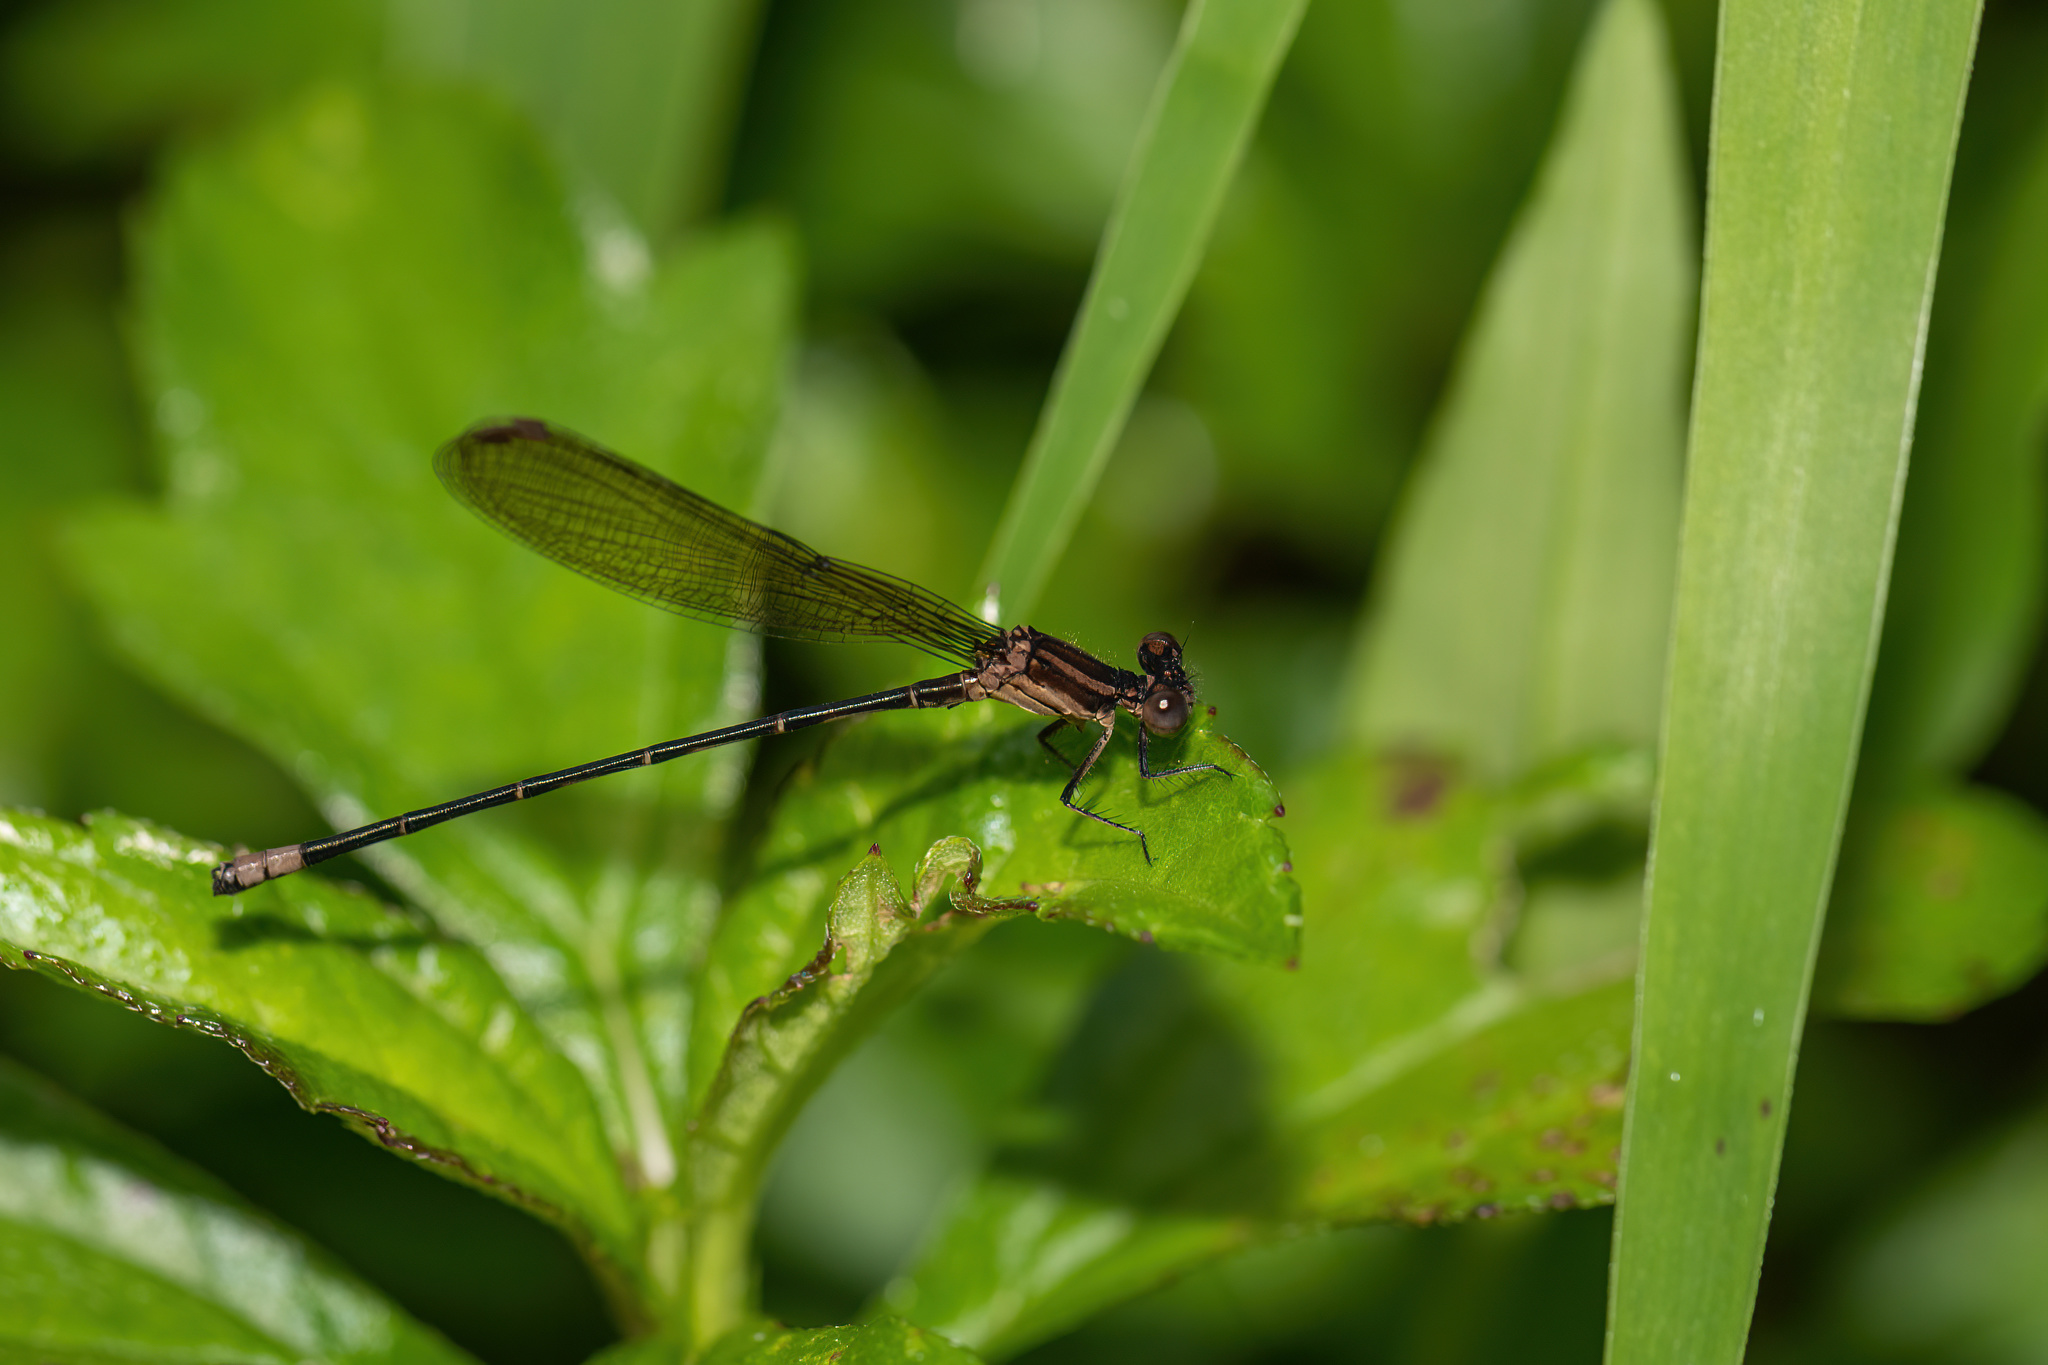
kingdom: Animalia
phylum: Arthropoda
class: Insecta
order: Odonata
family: Coenagrionidae
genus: Argia
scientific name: Argia sedula
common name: Blue-ringed dancer
